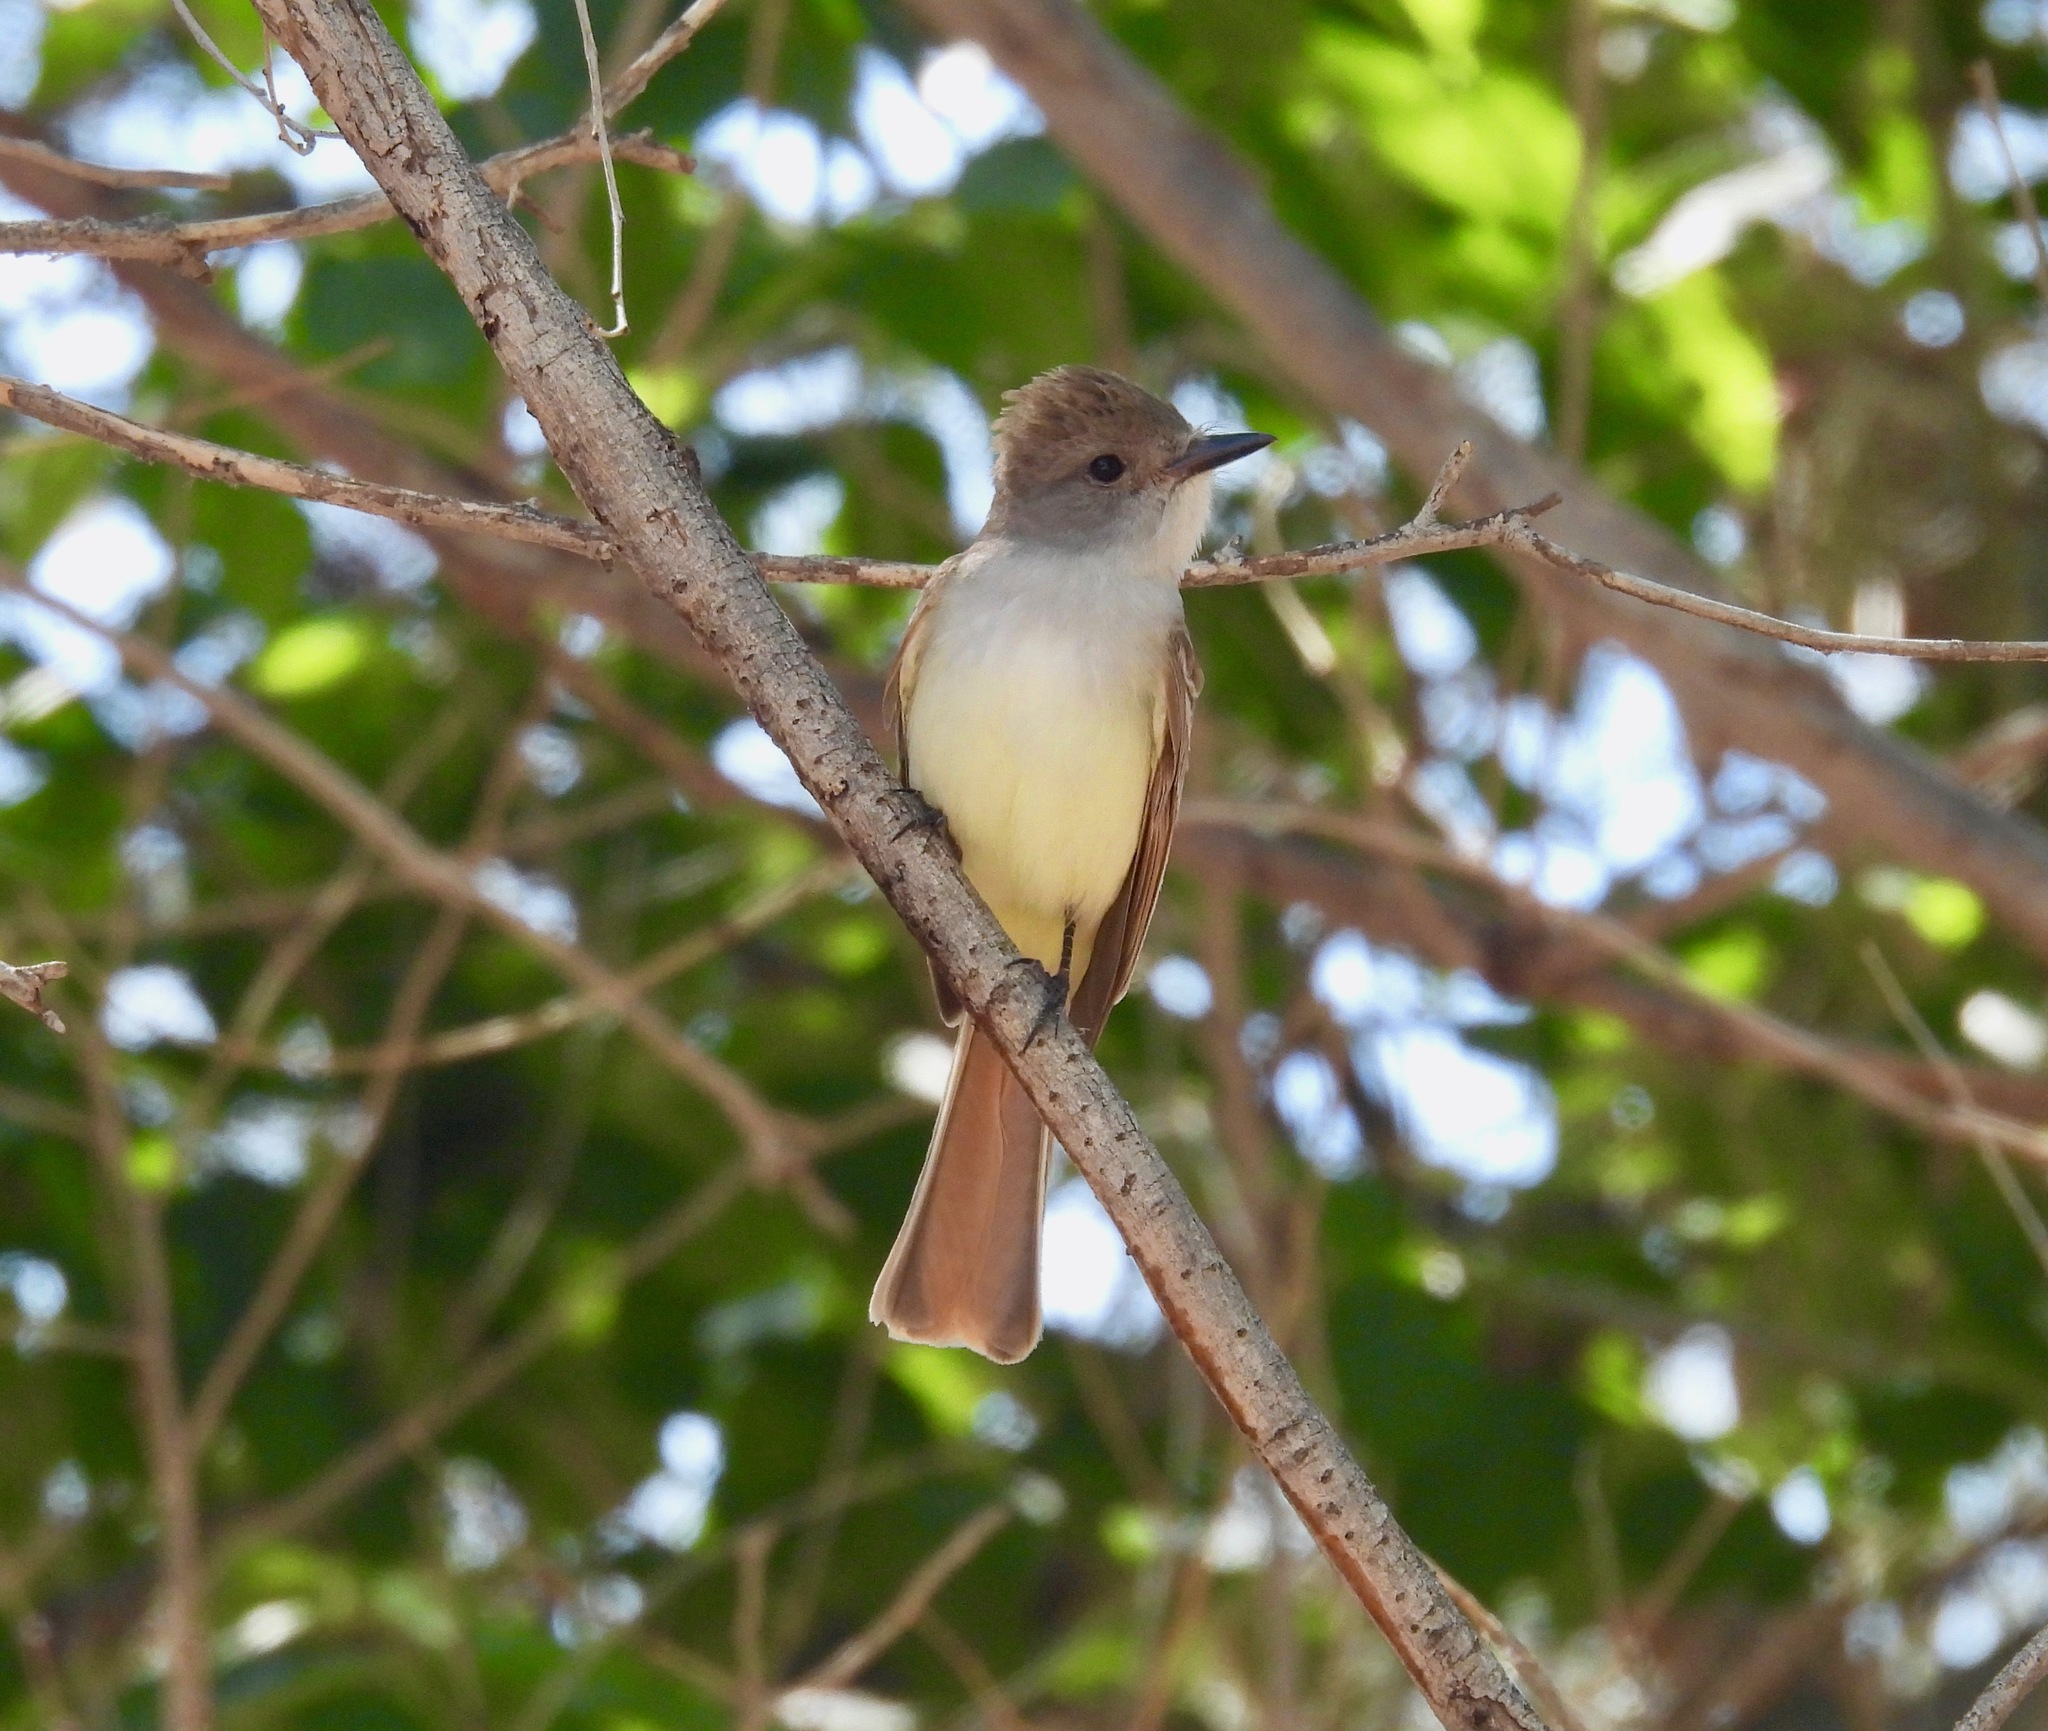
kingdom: Animalia
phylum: Chordata
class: Aves
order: Passeriformes
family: Tyrannidae
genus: Myiarchus
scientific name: Myiarchus cinerascens
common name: Ash-throated flycatcher
